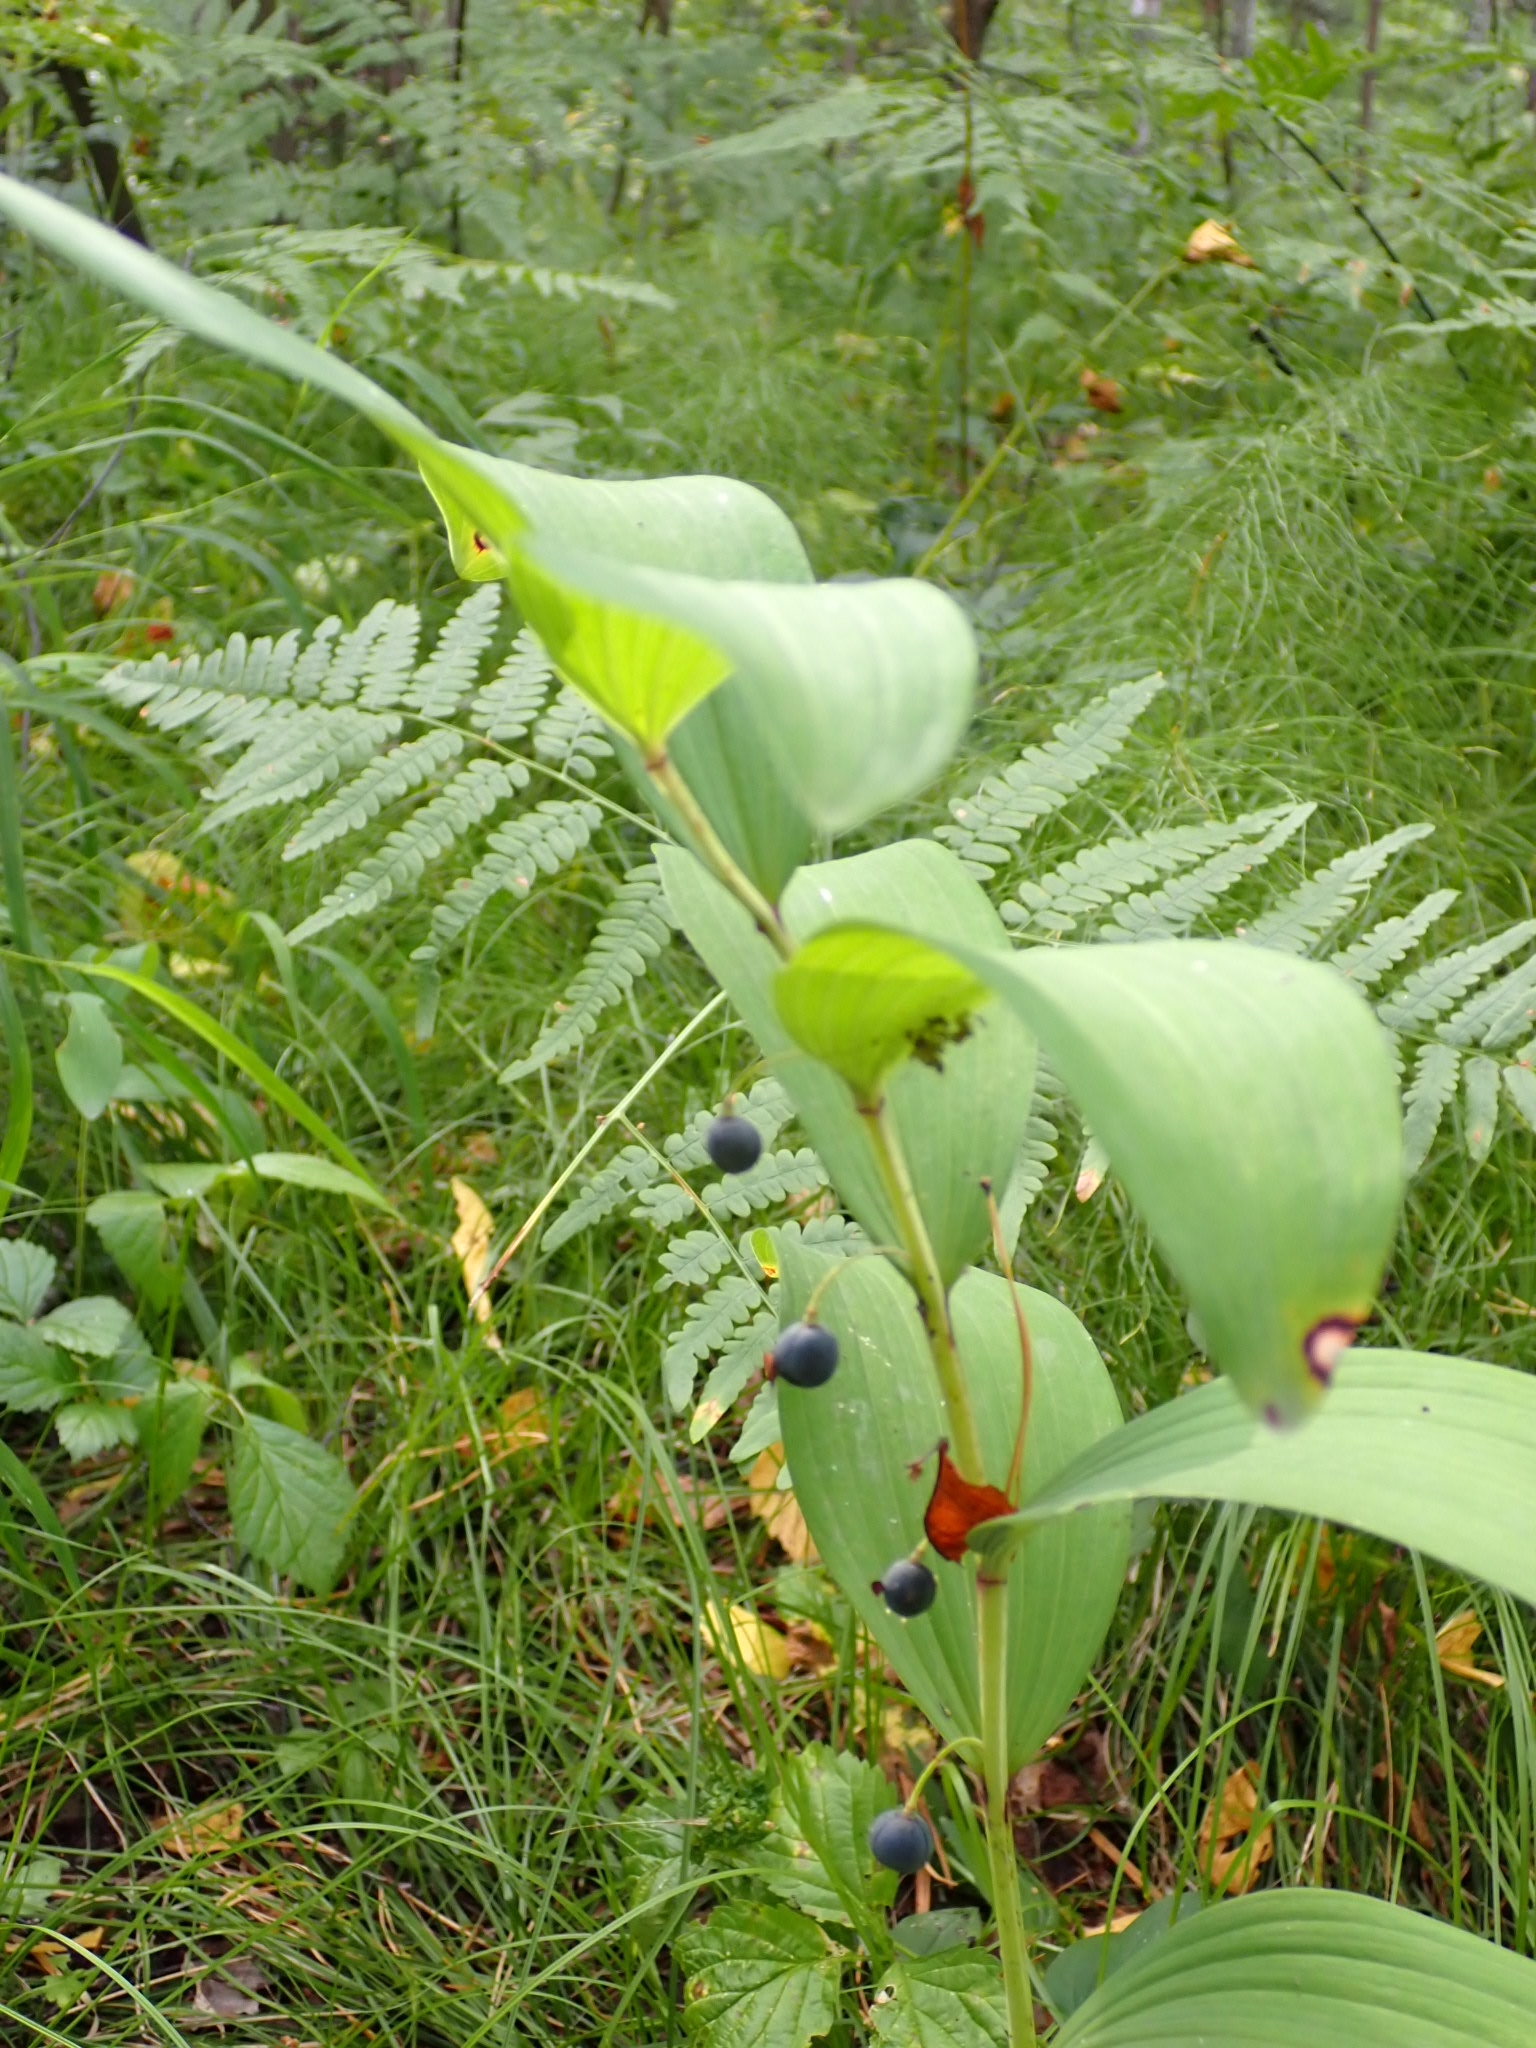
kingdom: Plantae
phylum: Tracheophyta
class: Liliopsida
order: Asparagales
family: Asparagaceae
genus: Polygonatum
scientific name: Polygonatum odoratum
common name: Angular solomon's-seal
